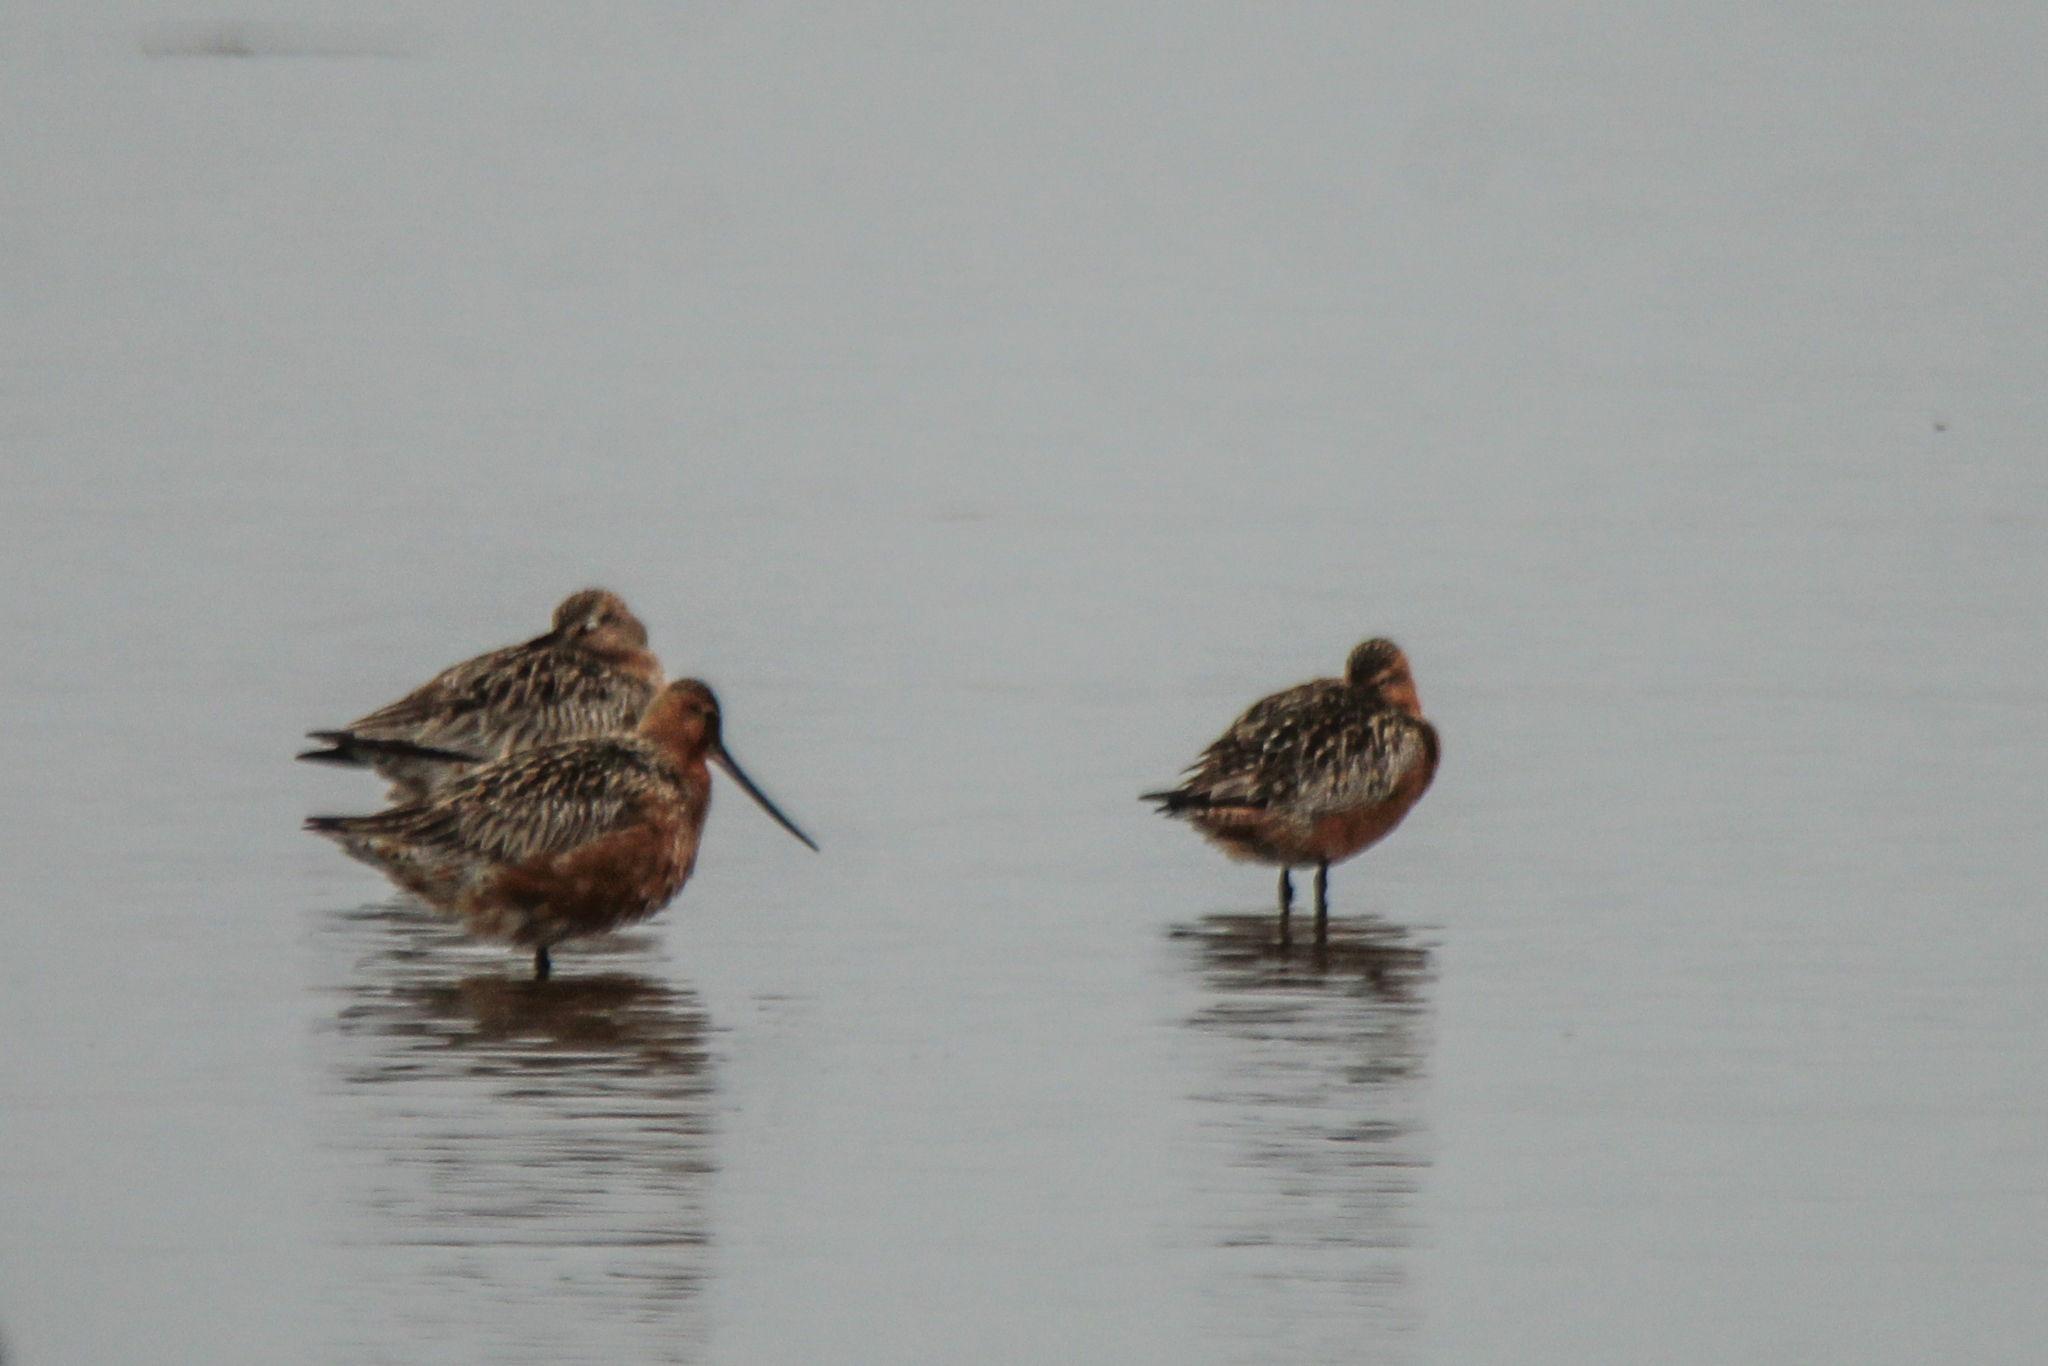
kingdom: Animalia
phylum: Chordata
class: Aves
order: Charadriiformes
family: Scolopacidae
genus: Limosa
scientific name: Limosa lapponica
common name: Bar-tailed godwit
